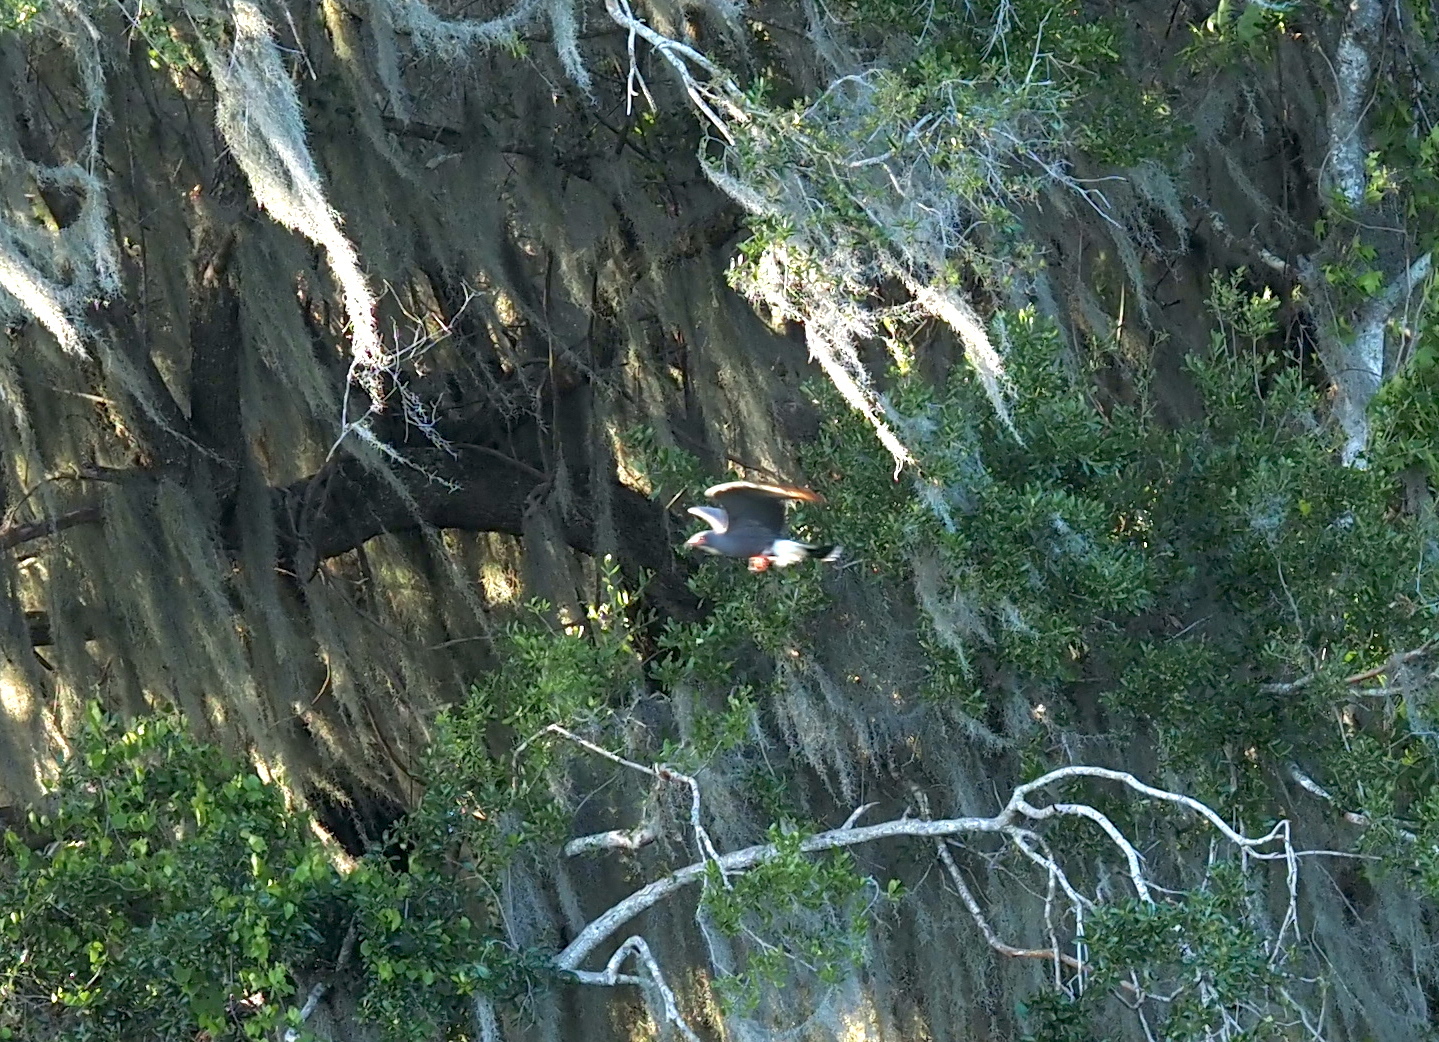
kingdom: Animalia
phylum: Chordata
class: Aves
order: Accipitriformes
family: Accipitridae
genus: Rostrhamus
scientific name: Rostrhamus sociabilis
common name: Snail kite
